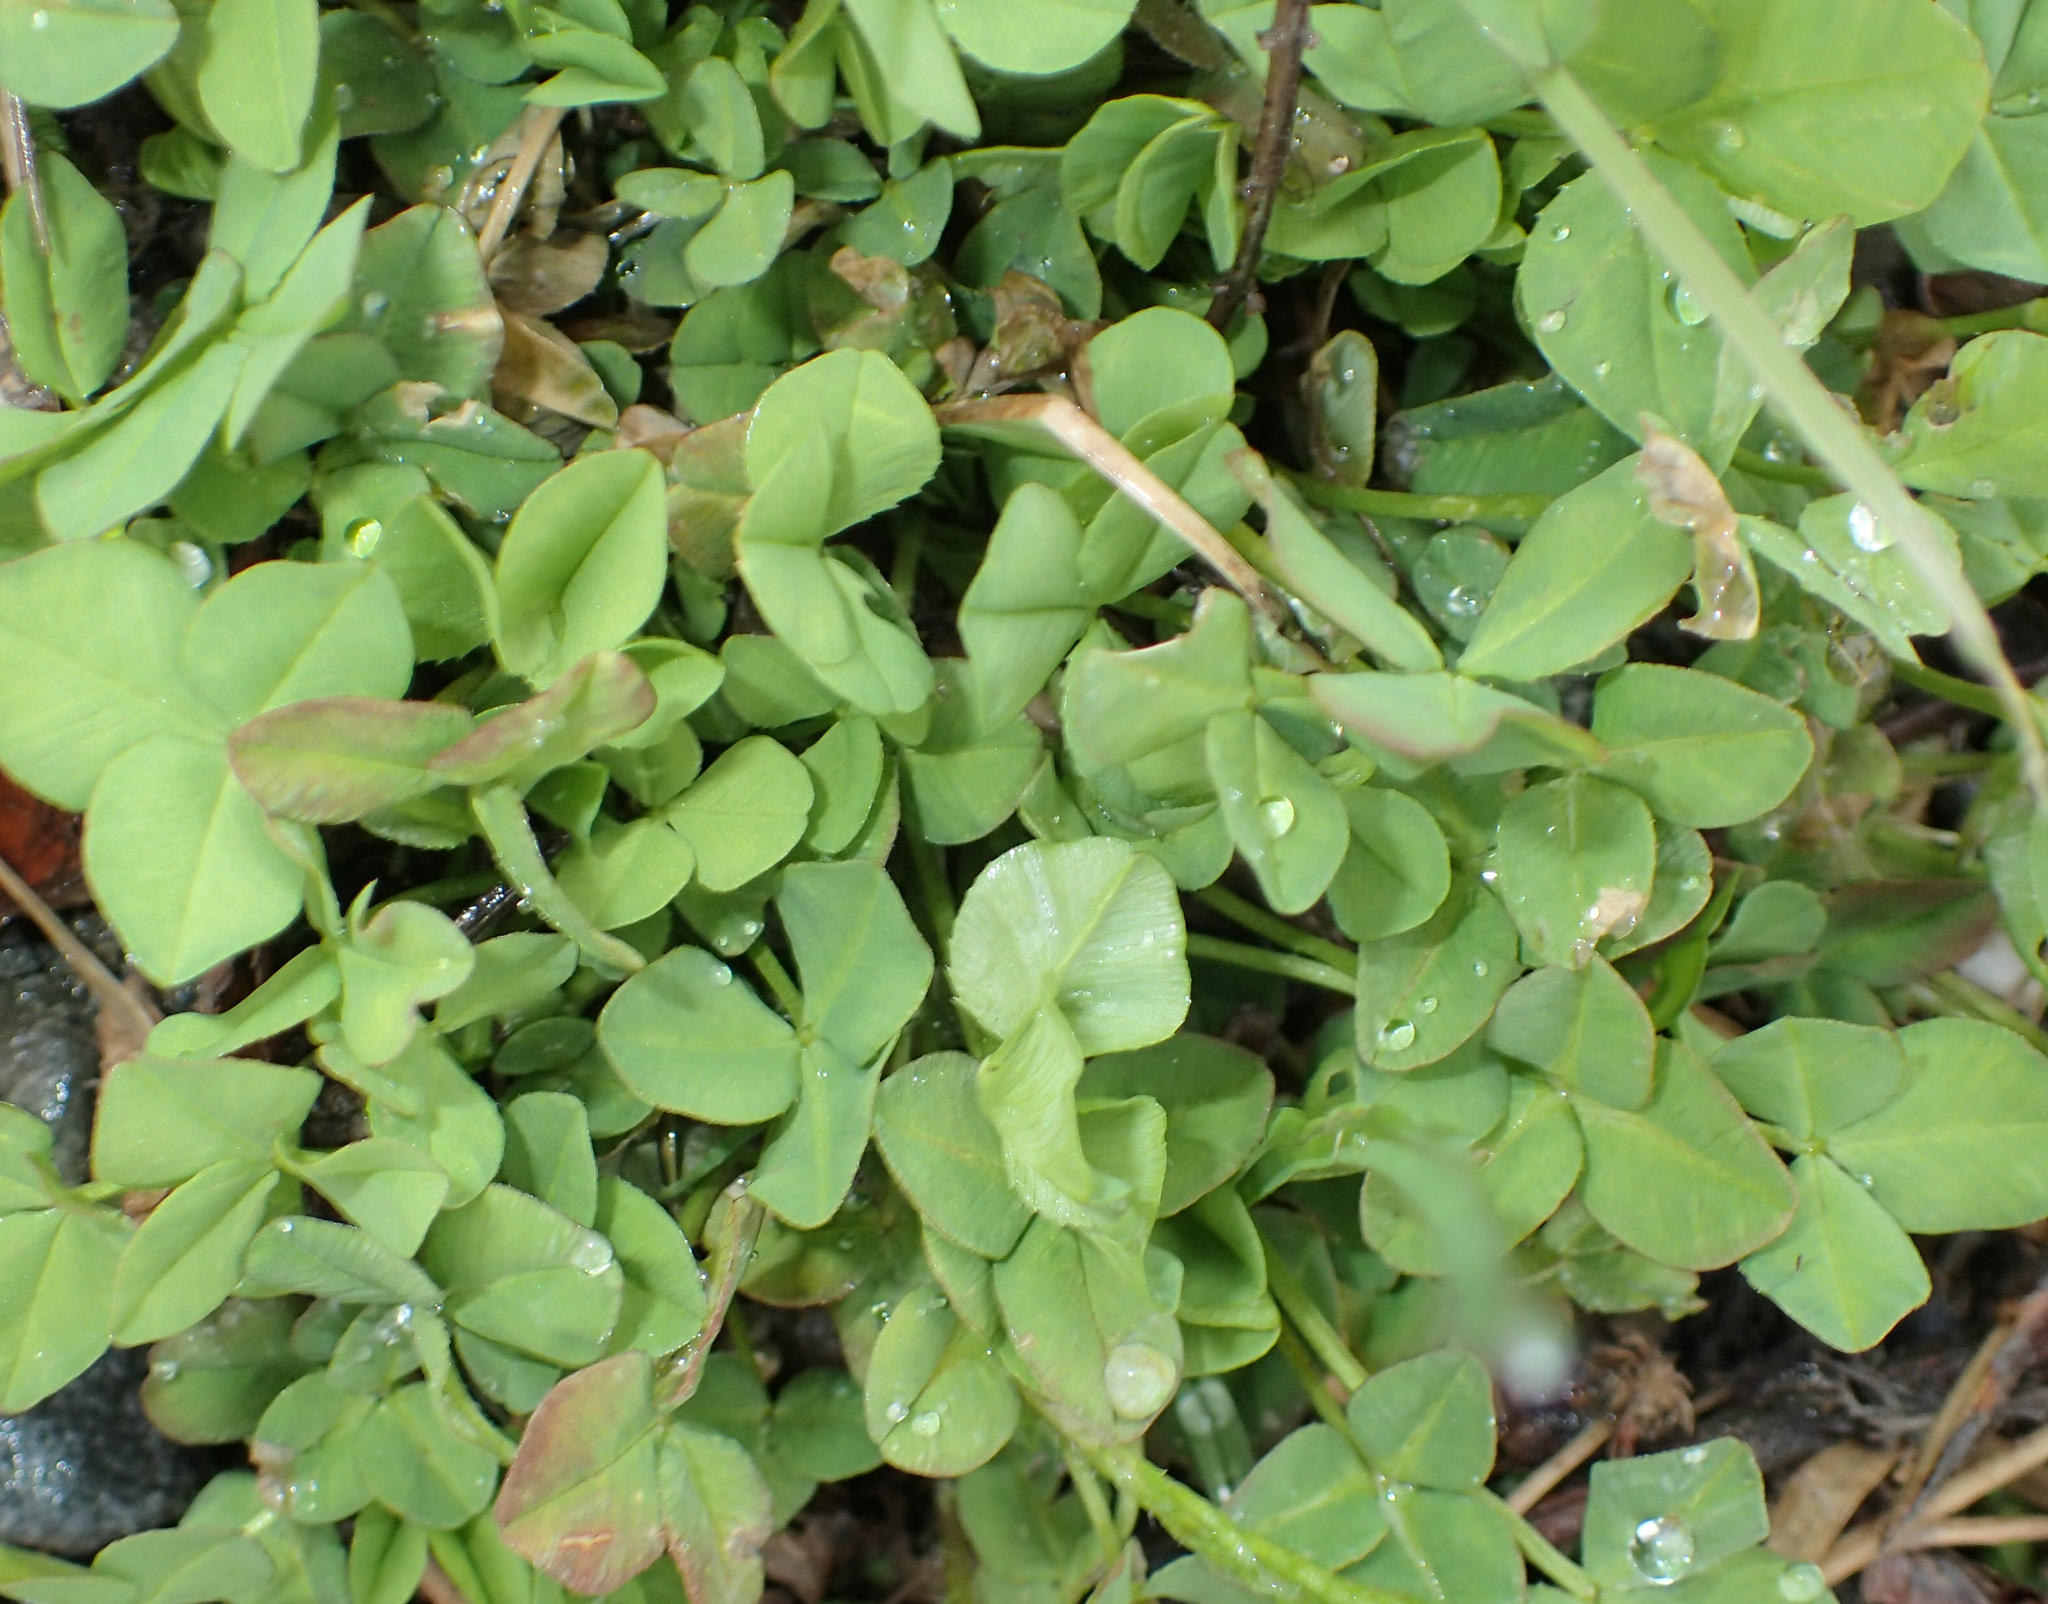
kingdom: Plantae
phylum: Tracheophyta
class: Magnoliopsida
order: Fabales
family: Fabaceae
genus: Trifolium
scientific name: Trifolium repens
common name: White clover
